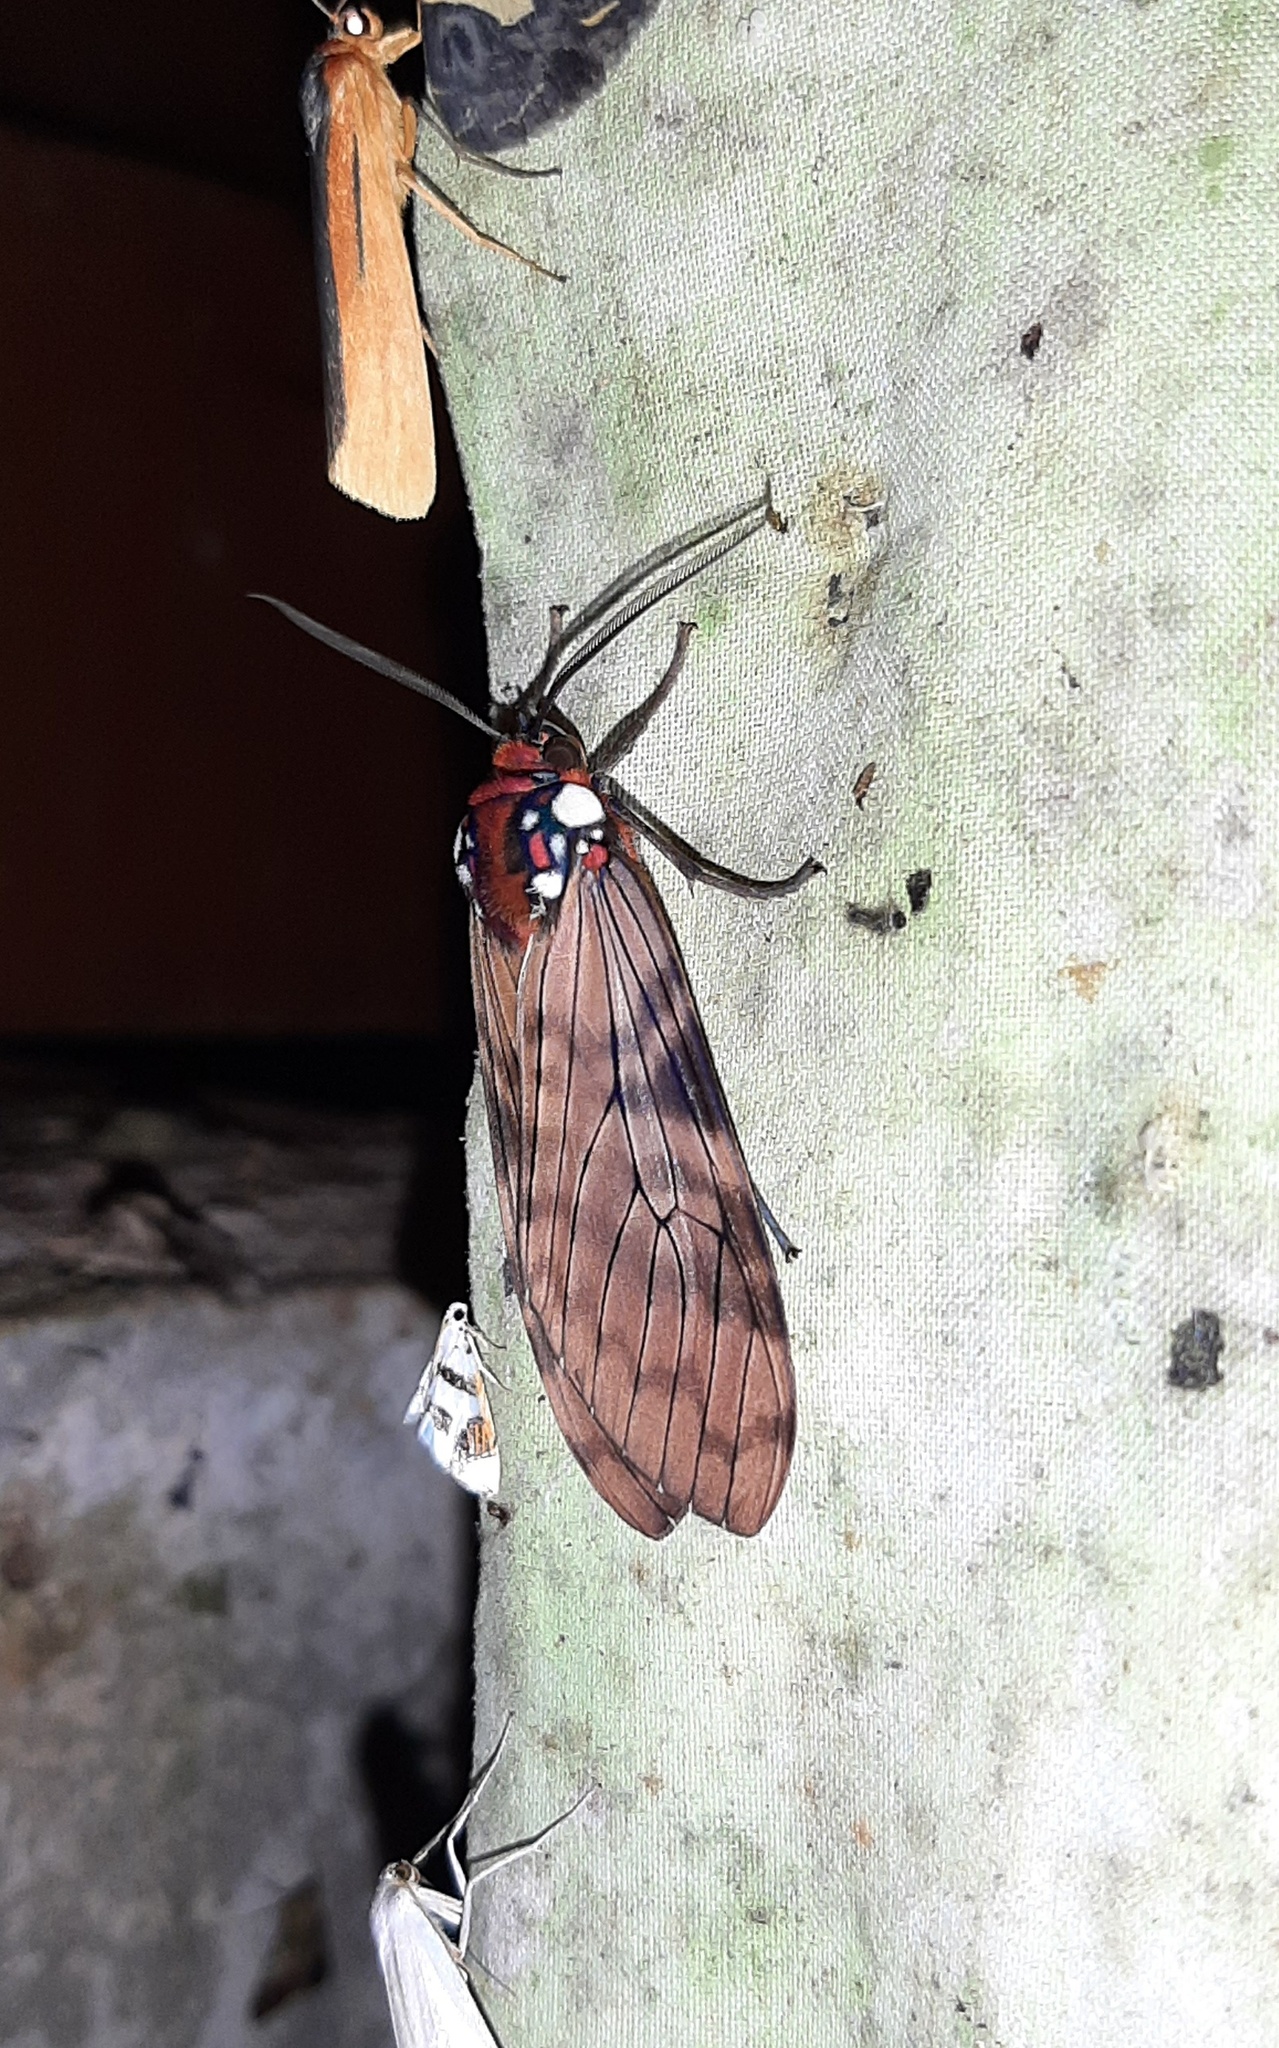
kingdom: Animalia
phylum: Arthropoda
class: Insecta
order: Lepidoptera
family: Erebidae
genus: Praemastus
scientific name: Praemastus albipuncta
